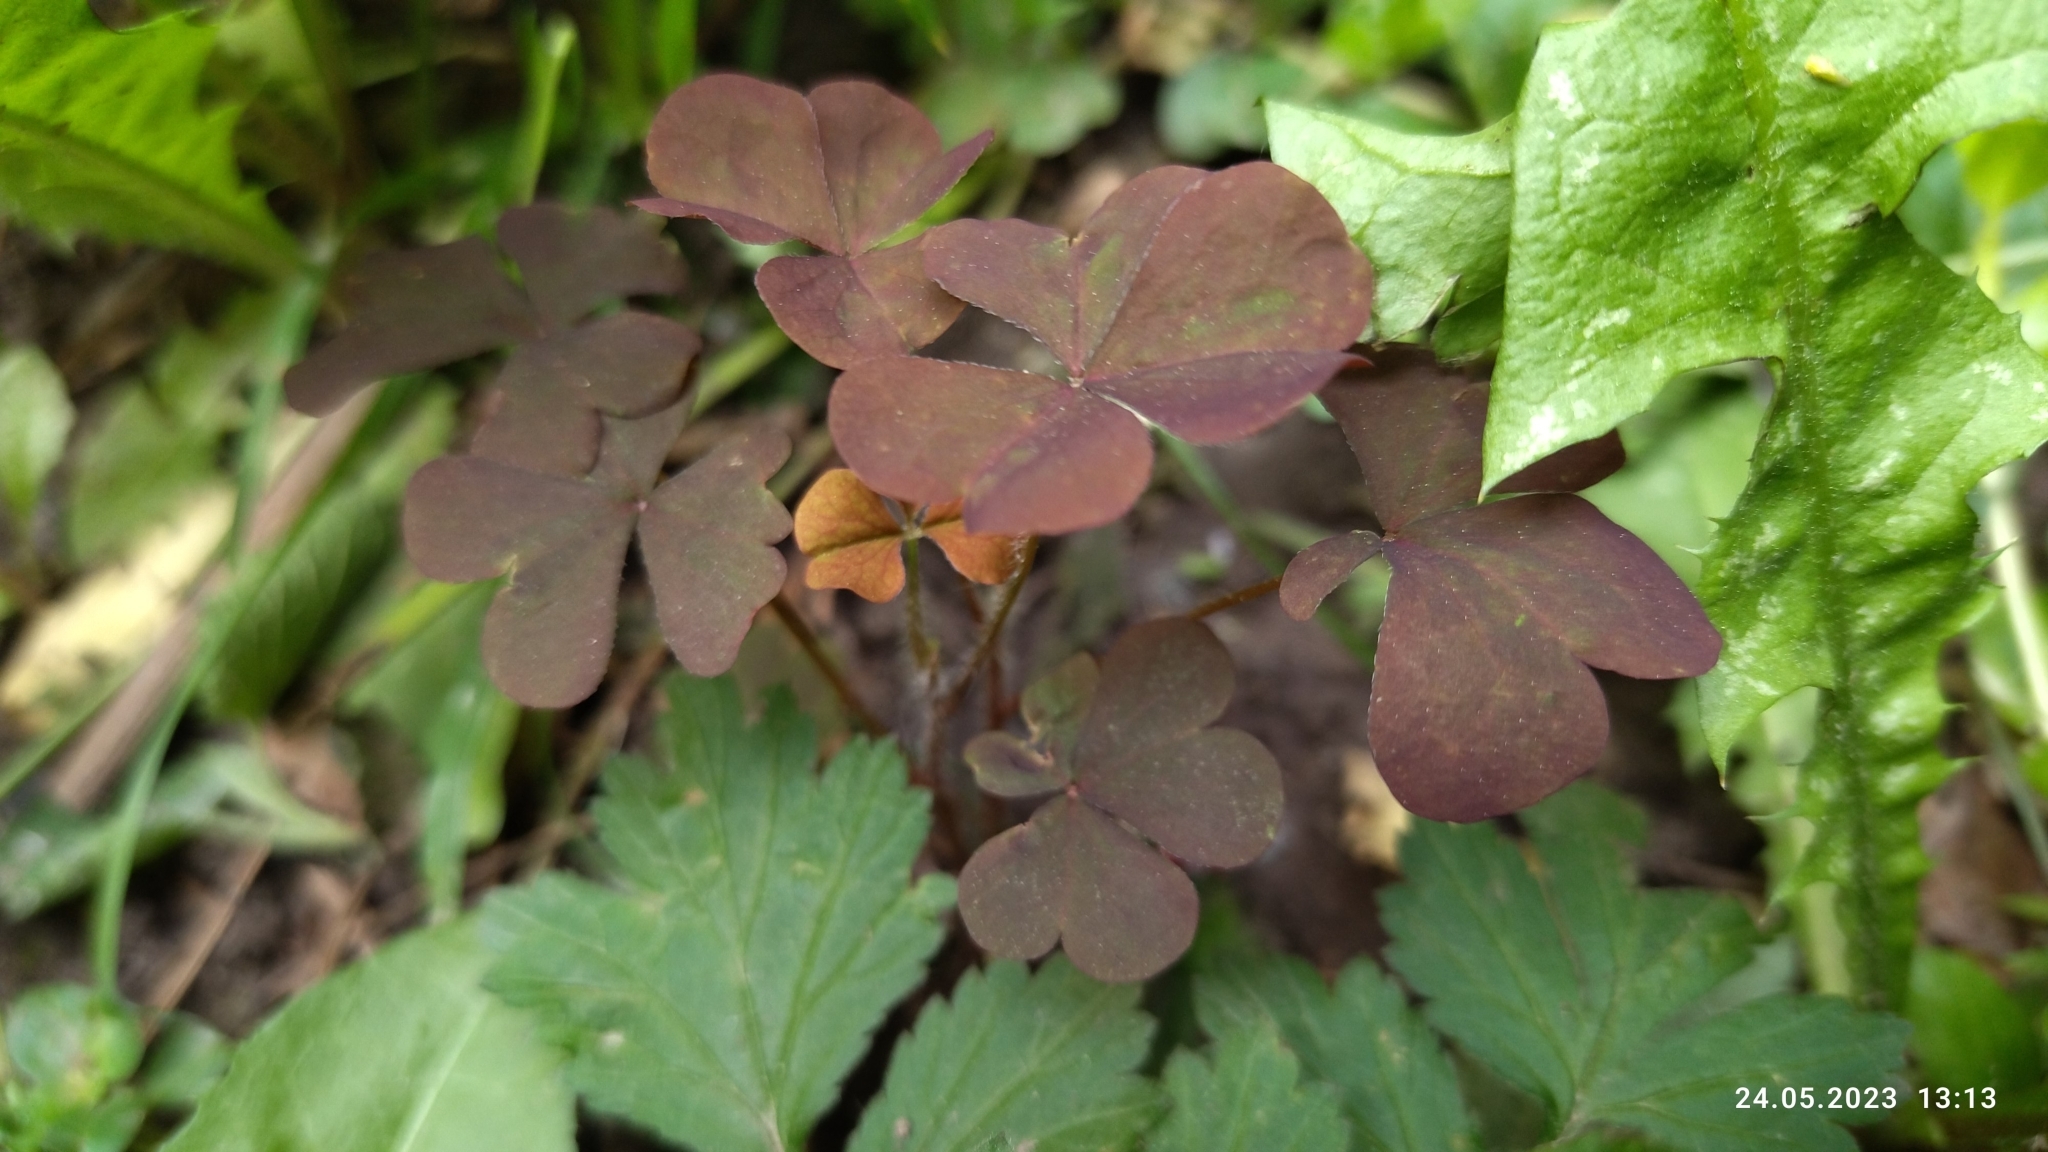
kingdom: Plantae
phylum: Tracheophyta
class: Magnoliopsida
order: Oxalidales
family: Oxalidaceae
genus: Oxalis
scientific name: Oxalis stricta
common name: Upright yellow-sorrel
